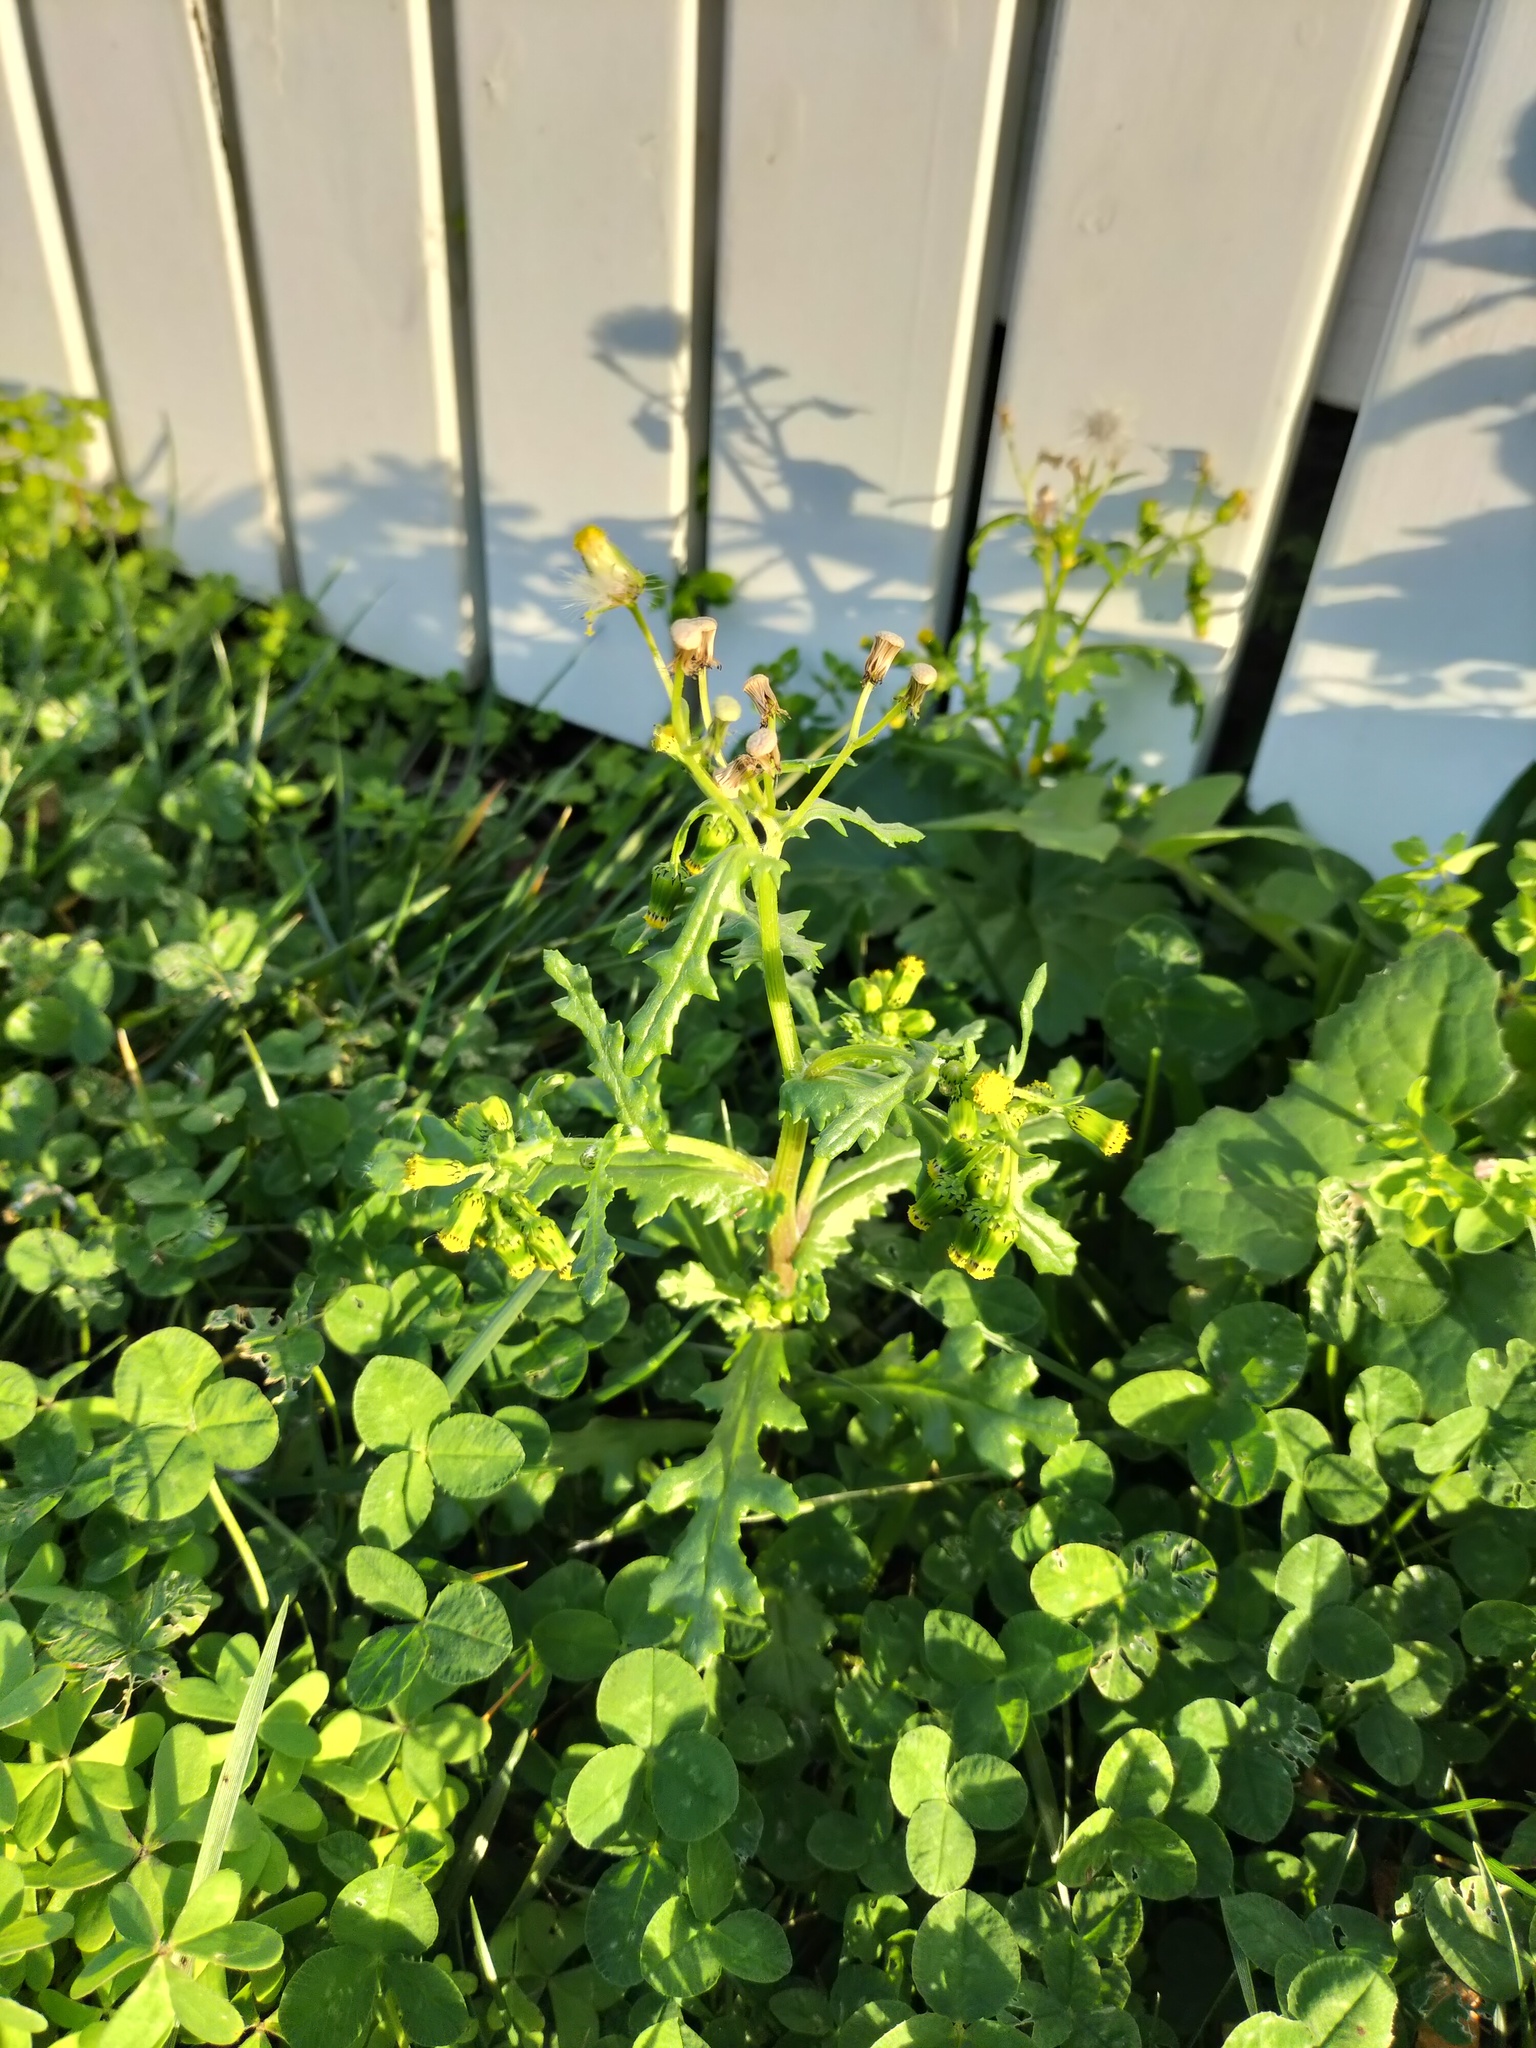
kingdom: Plantae
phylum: Tracheophyta
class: Magnoliopsida
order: Asterales
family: Asteraceae
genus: Senecio
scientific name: Senecio vulgaris
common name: Old-man-in-the-spring
